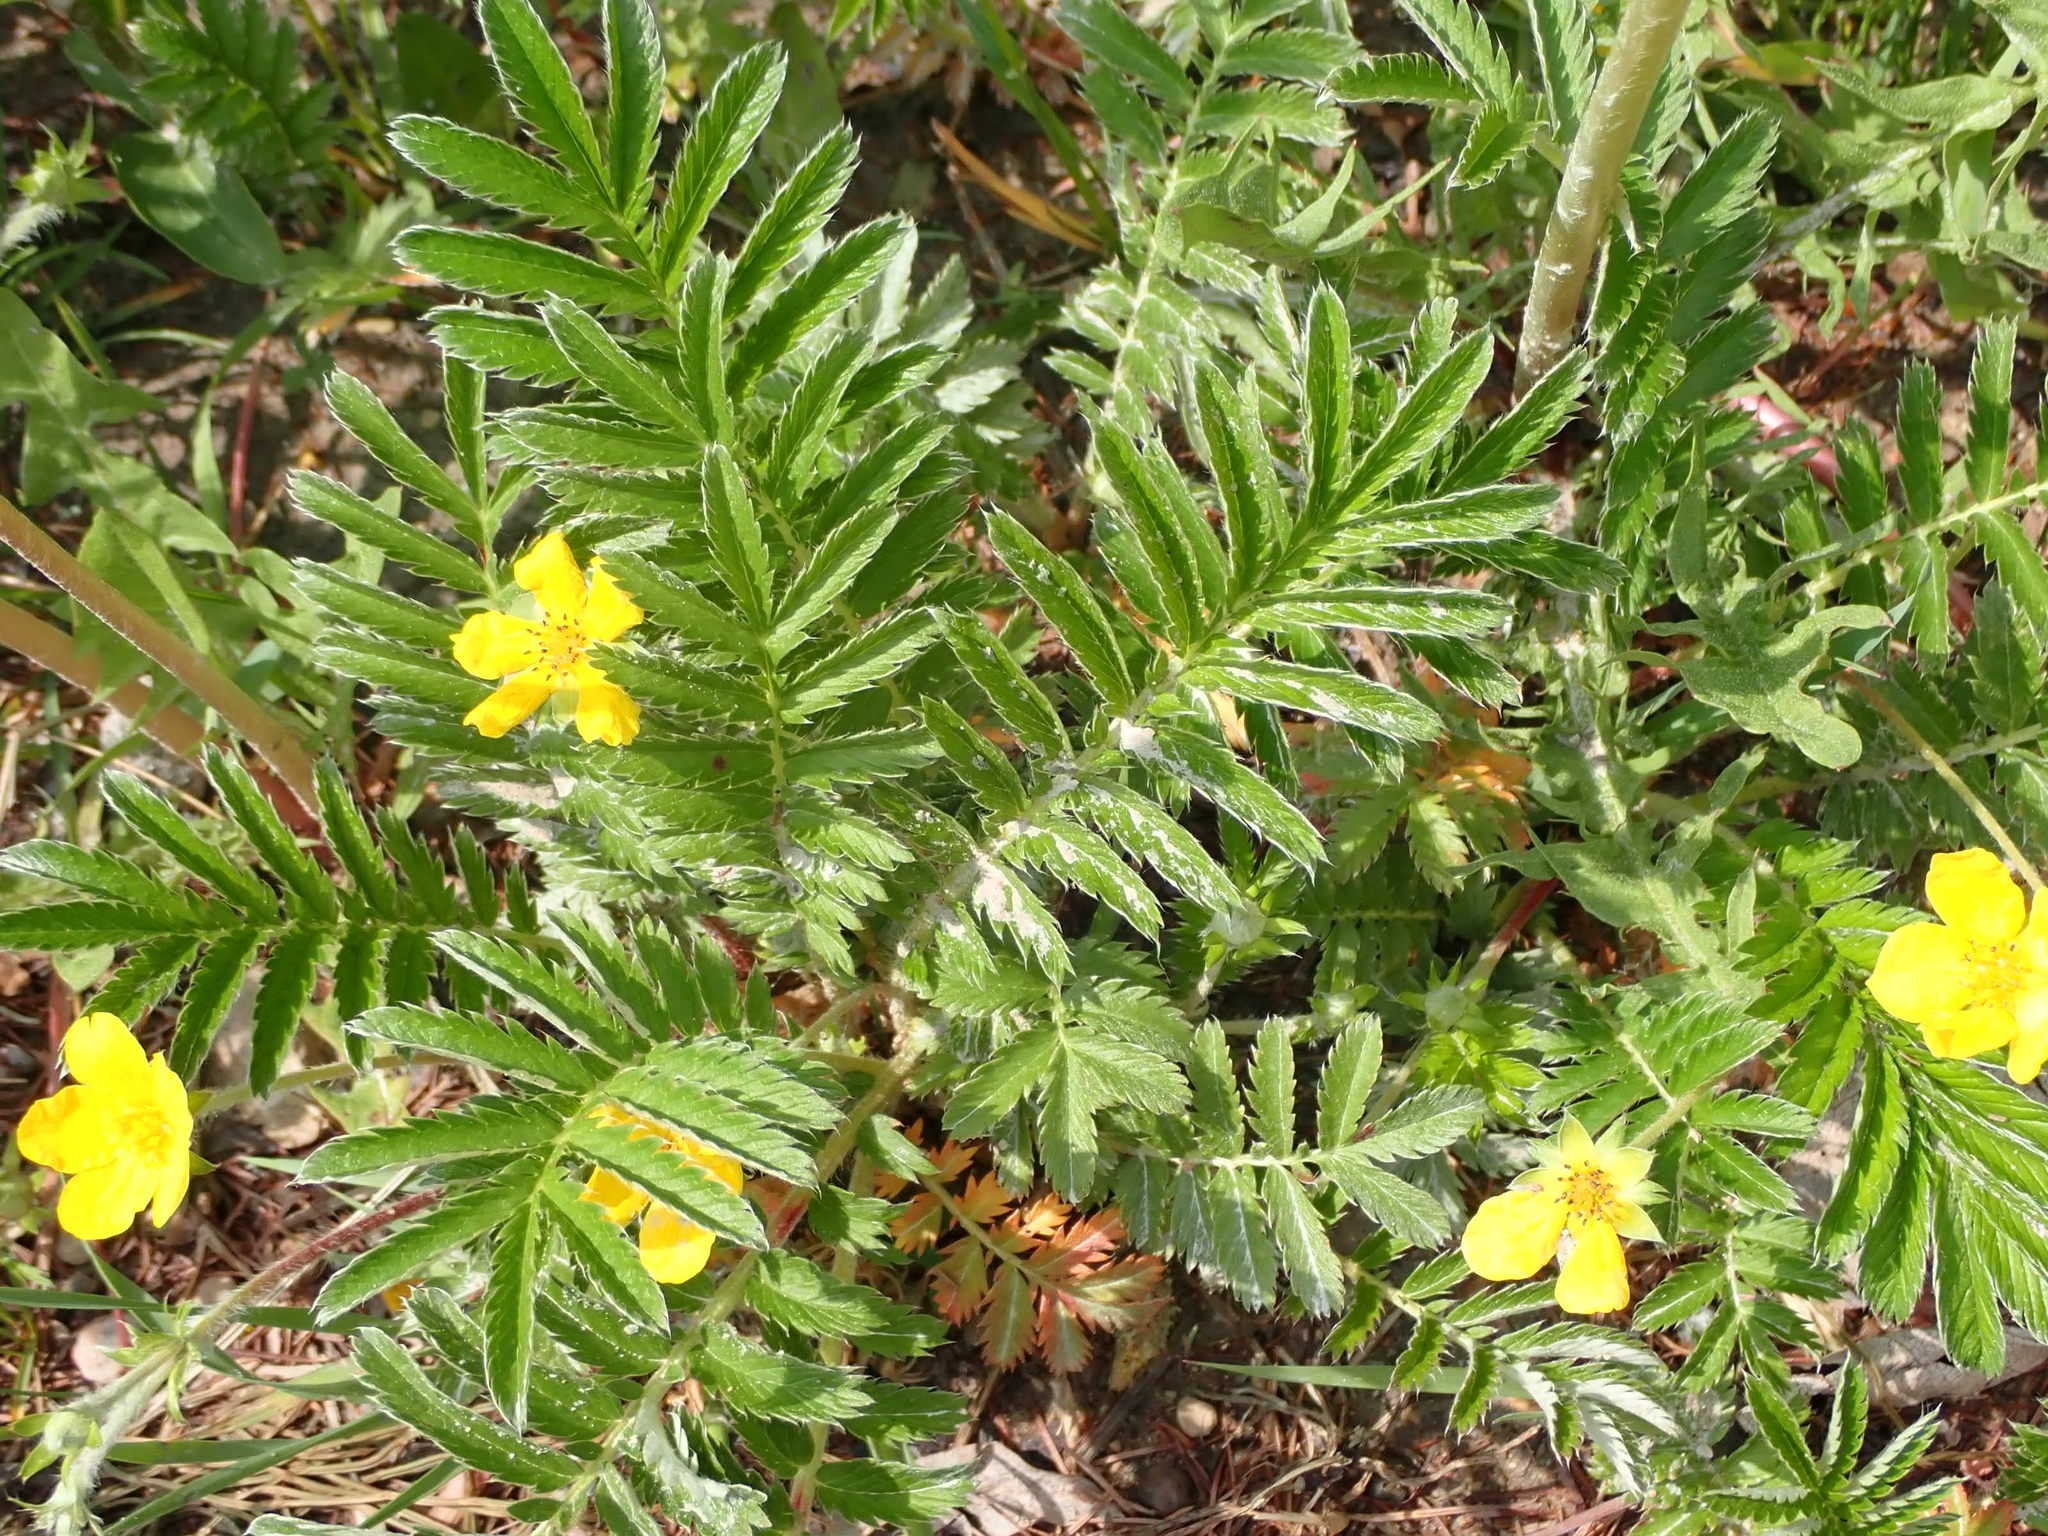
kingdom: Plantae
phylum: Tracheophyta
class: Magnoliopsida
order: Rosales
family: Rosaceae
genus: Argentina
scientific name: Argentina anserina
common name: Common silverweed
